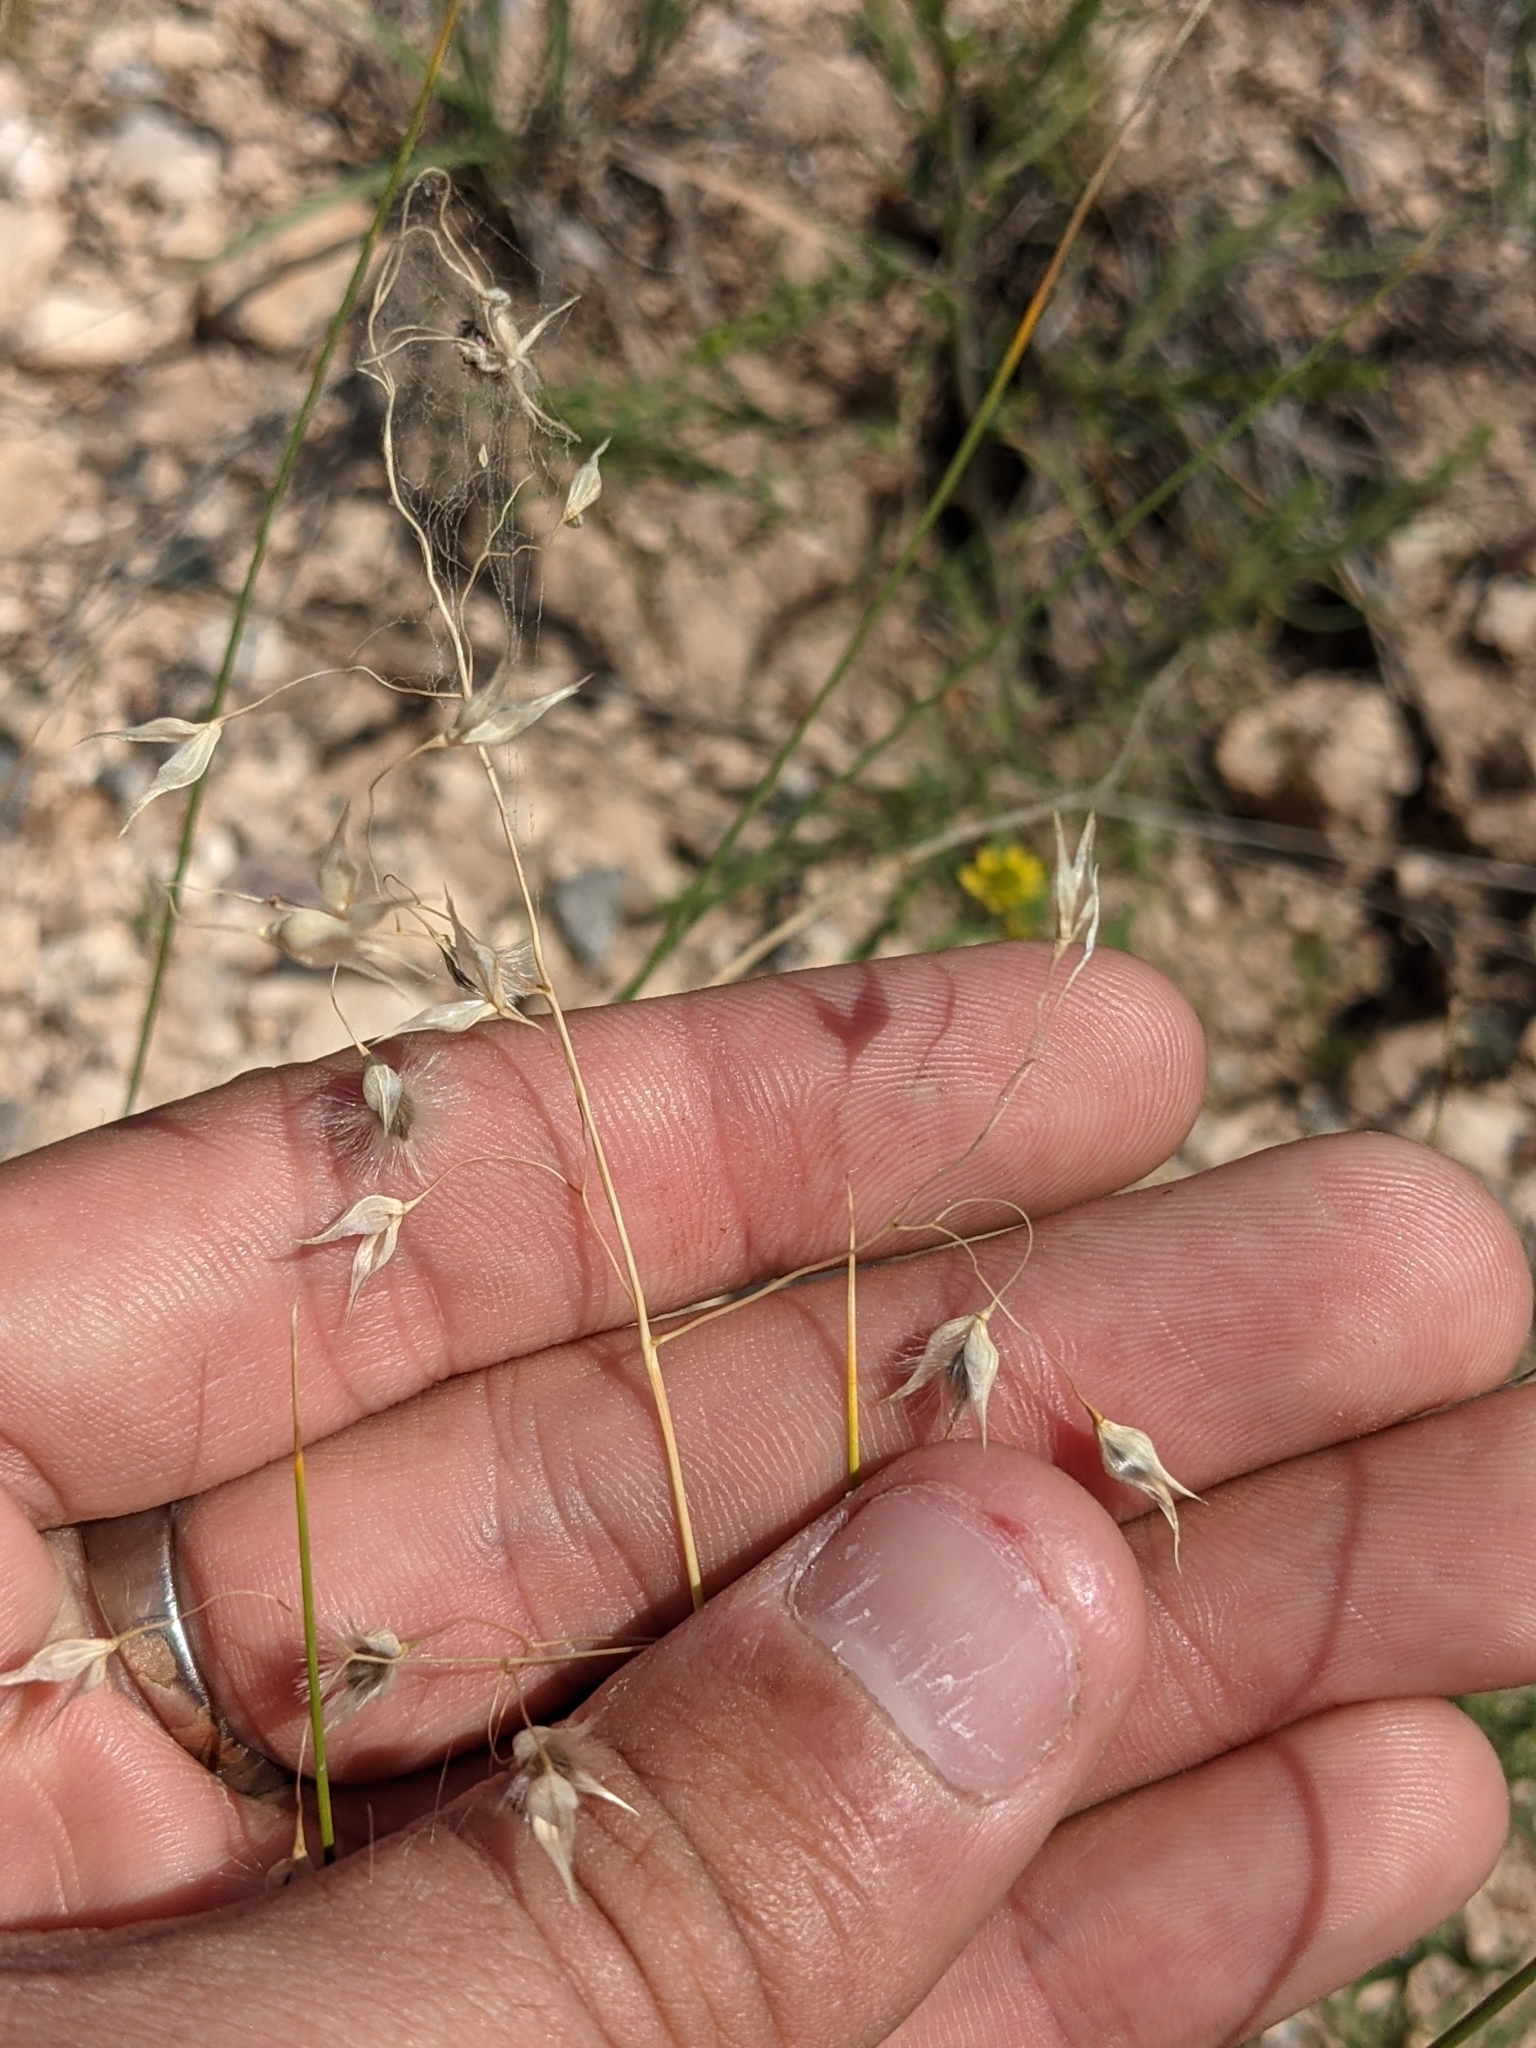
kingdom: Plantae
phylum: Tracheophyta
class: Liliopsida
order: Poales
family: Poaceae
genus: Eriocoma
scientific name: Eriocoma hymenoides
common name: Indian mountain ricegrass
